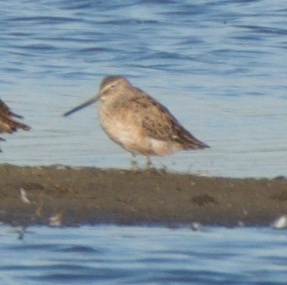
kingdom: Animalia
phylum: Chordata
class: Aves
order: Charadriiformes
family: Scolopacidae
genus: Limnodromus
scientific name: Limnodromus scolopaceus
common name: Long-billed dowitcher
